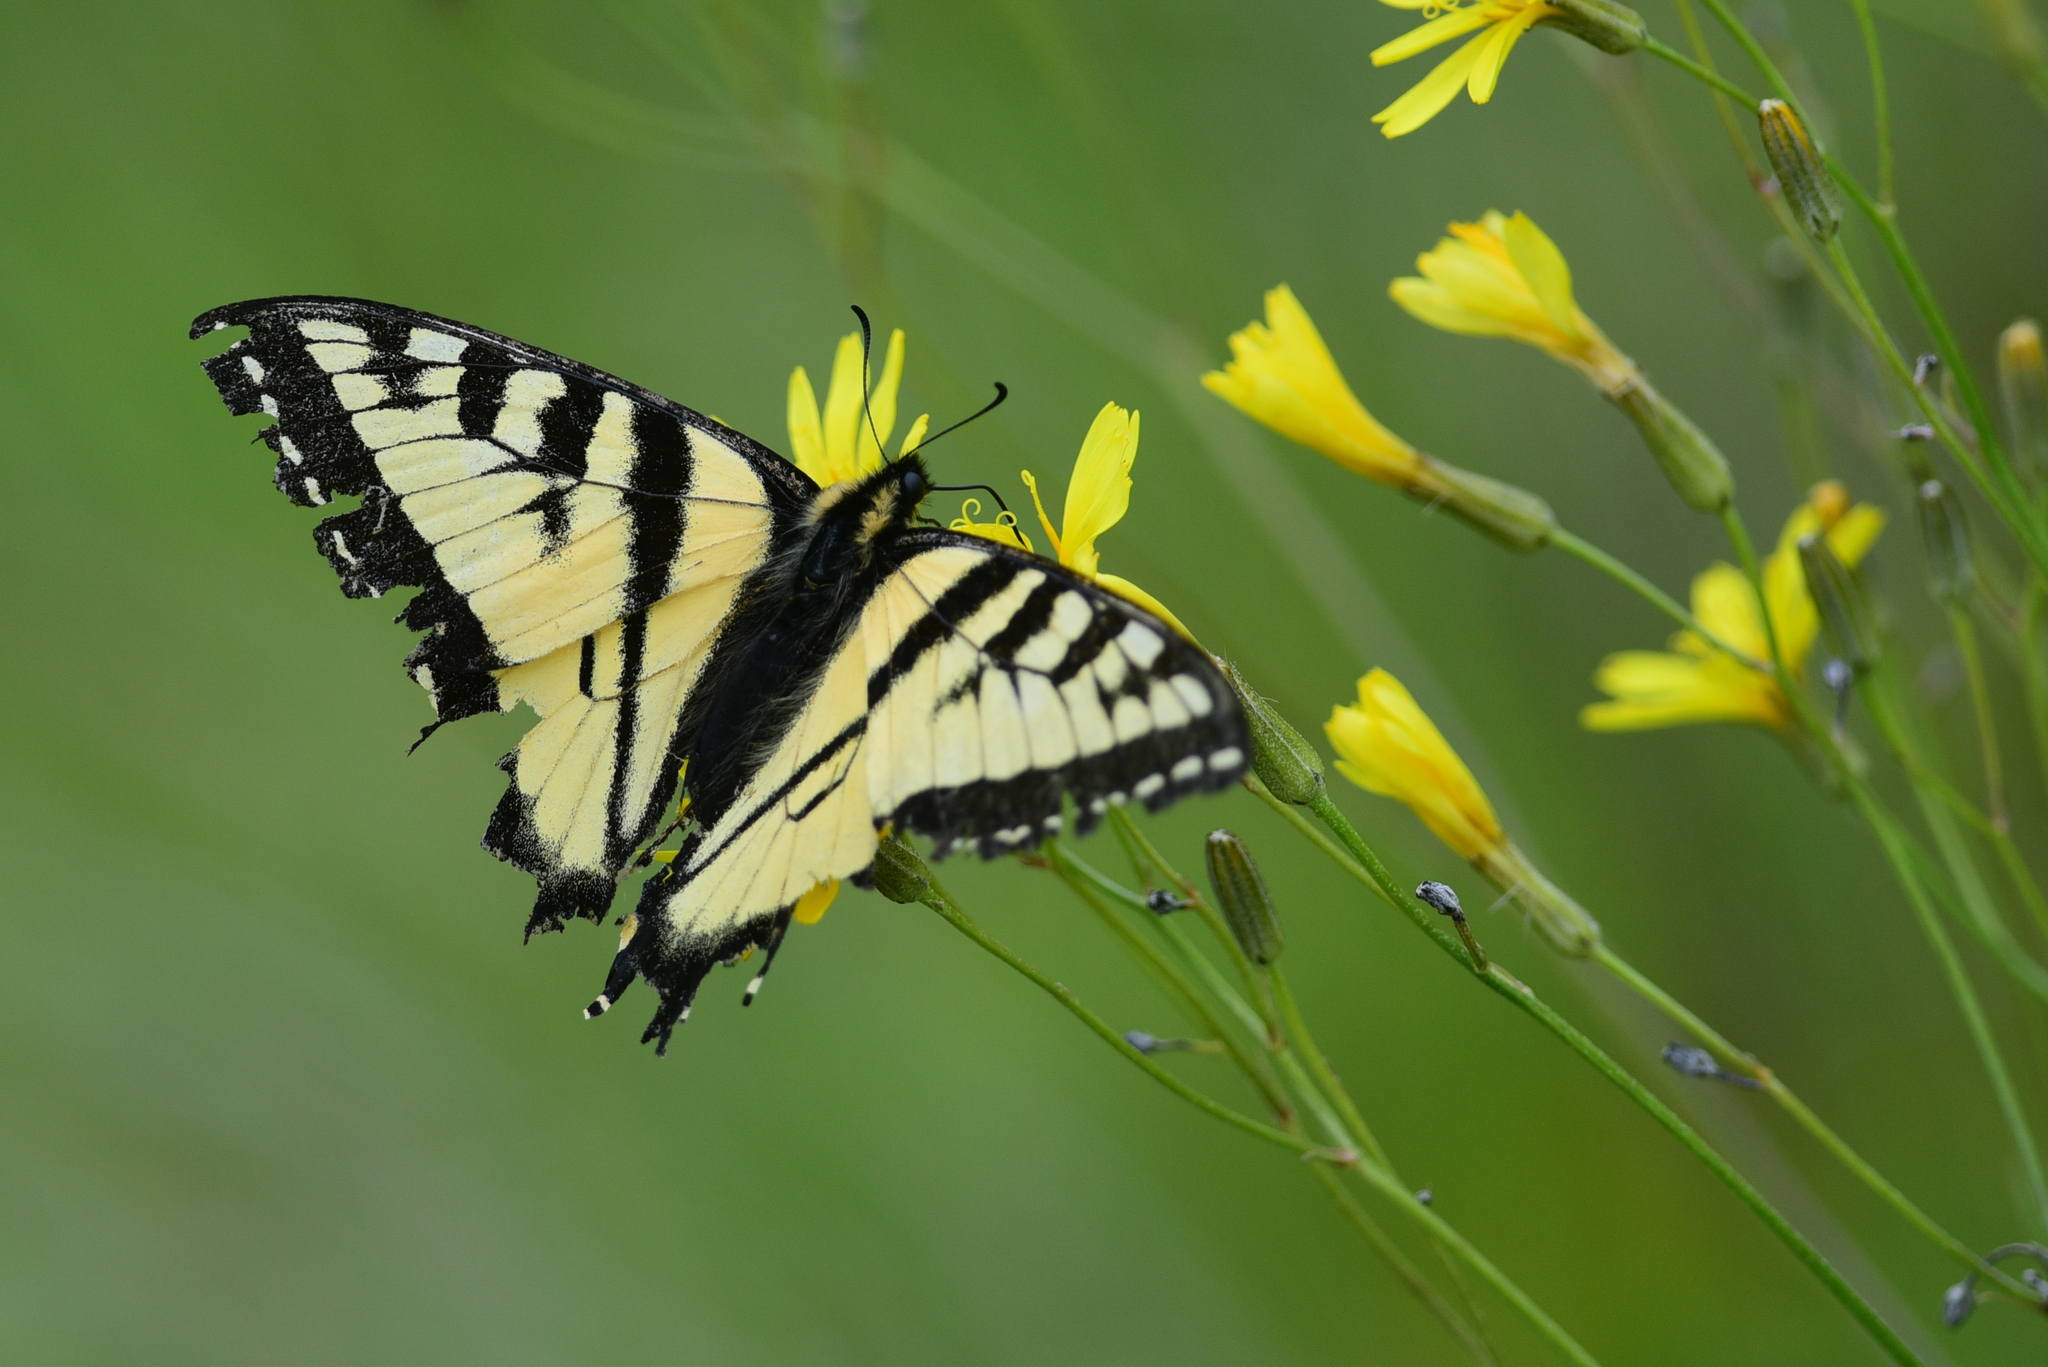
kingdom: Animalia
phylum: Arthropoda
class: Insecta
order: Lepidoptera
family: Papilionidae
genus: Papilio
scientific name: Papilio canadensis
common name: Canadian tiger swallowtail
